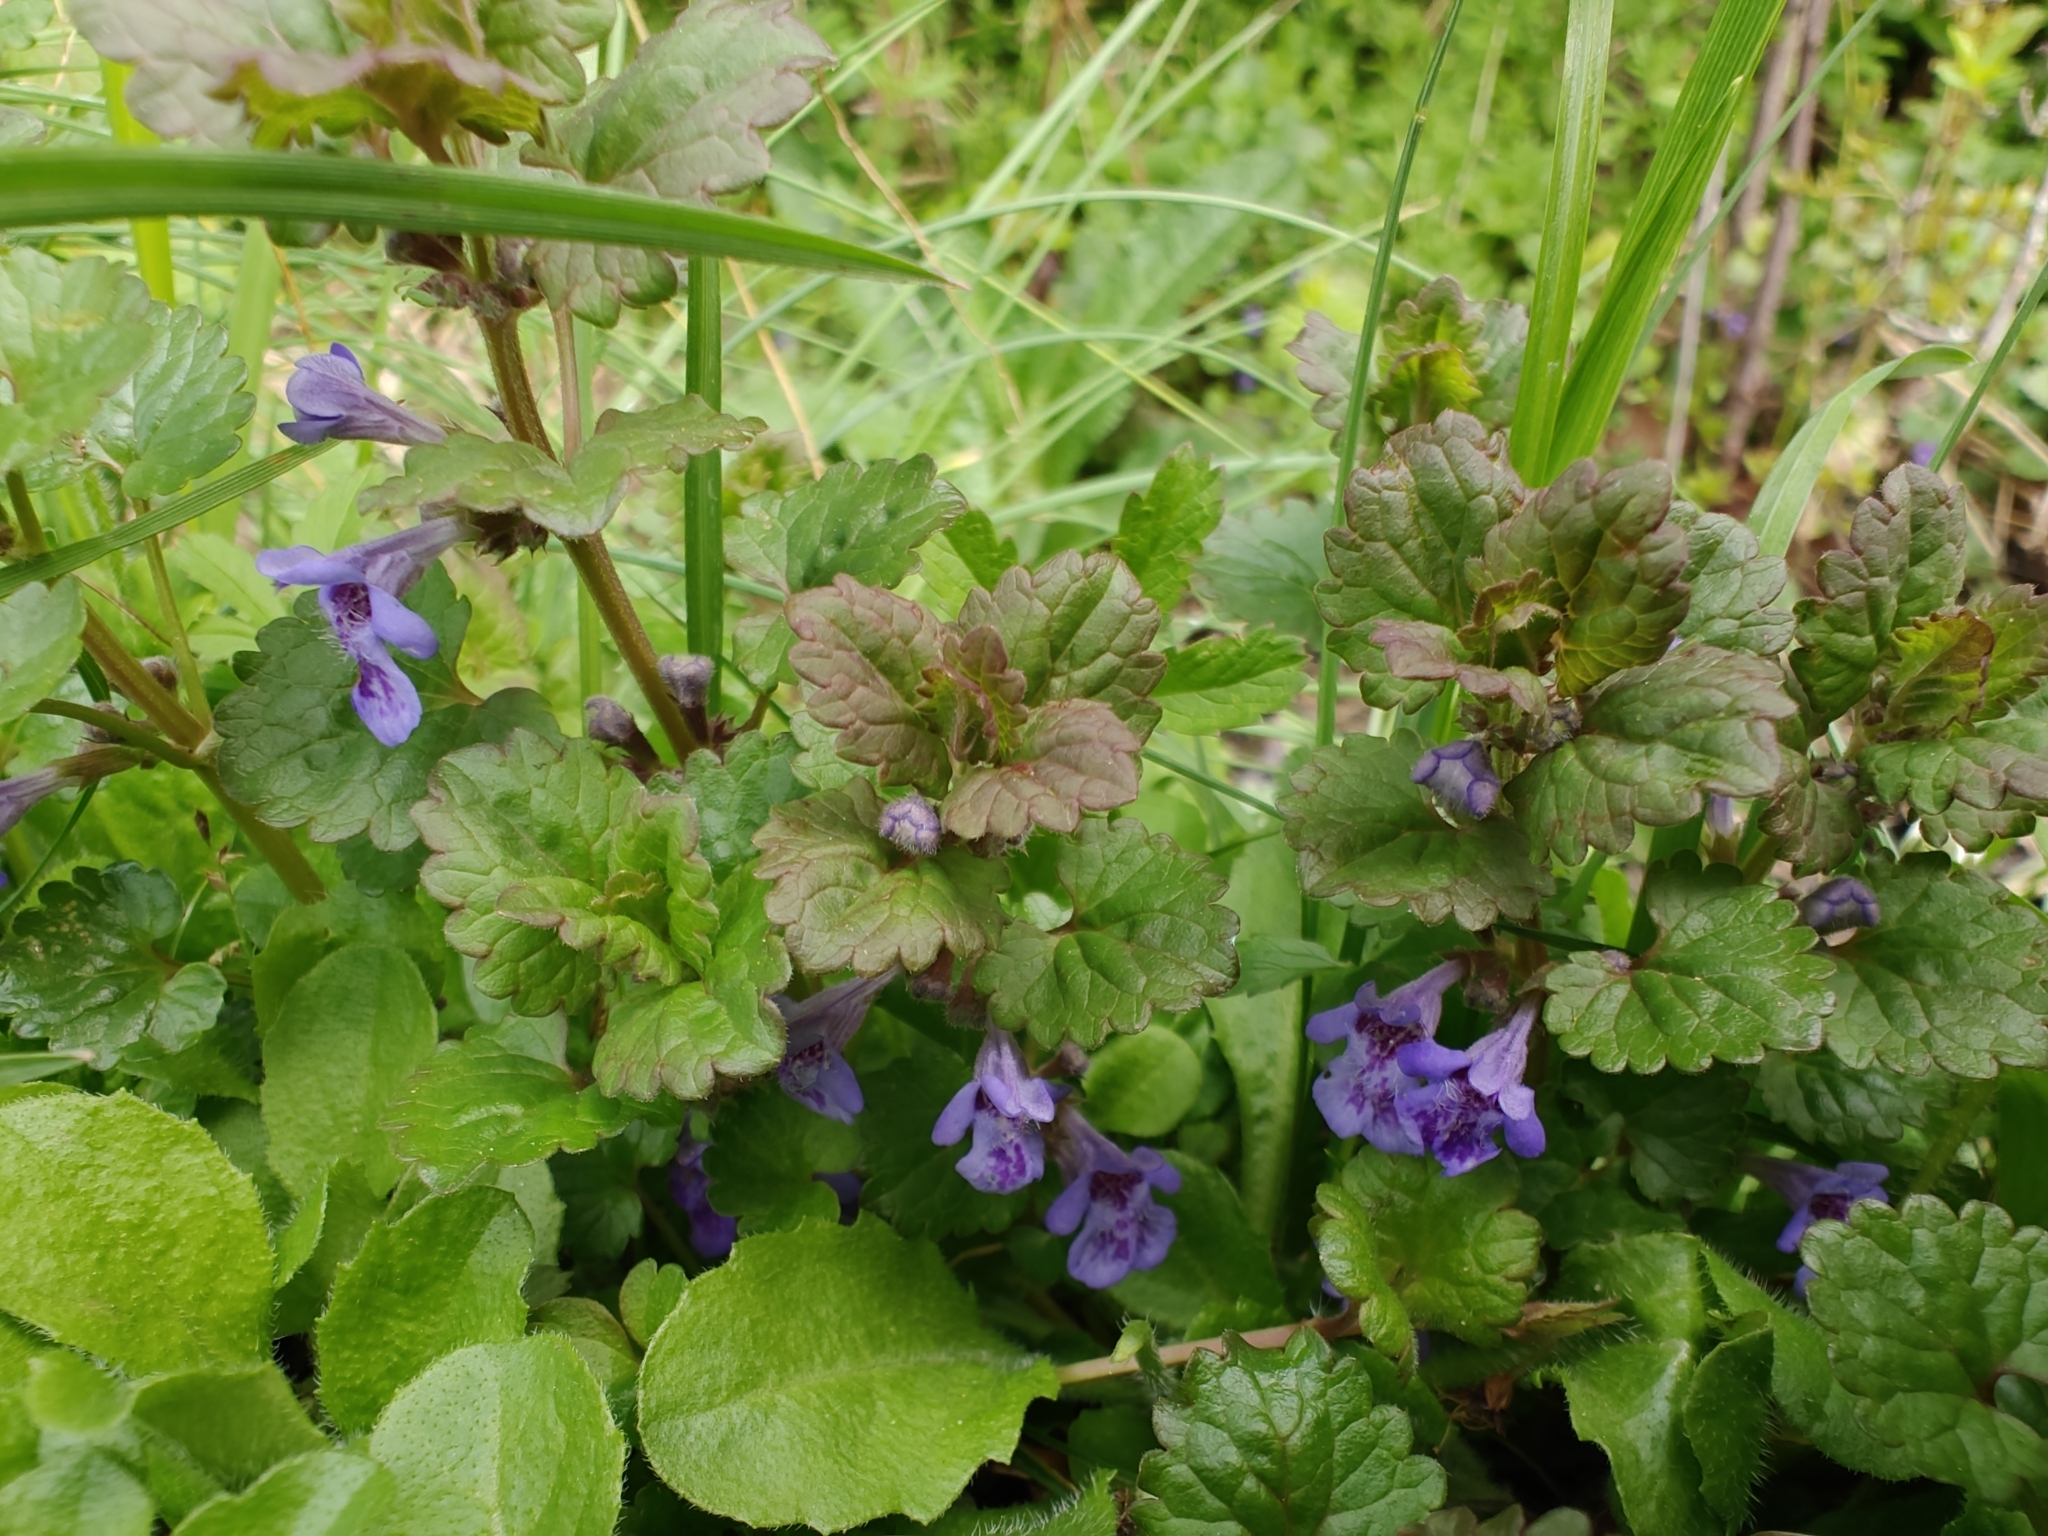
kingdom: Plantae
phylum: Tracheophyta
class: Magnoliopsida
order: Lamiales
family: Lamiaceae
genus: Glechoma
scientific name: Glechoma hederacea
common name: Ground ivy
